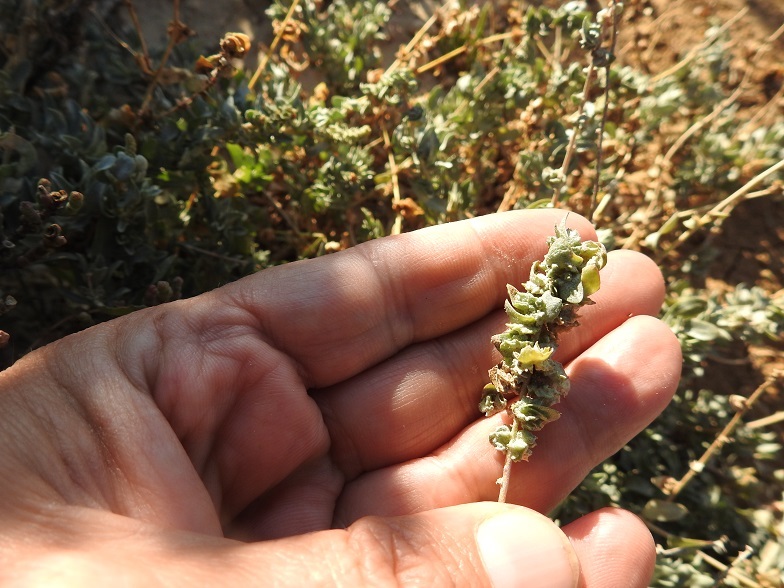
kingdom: Plantae
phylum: Tracheophyta
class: Magnoliopsida
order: Caryophyllales
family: Amaranthaceae
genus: Atriplex
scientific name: Atriplex glauca
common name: Waxy saltbush
